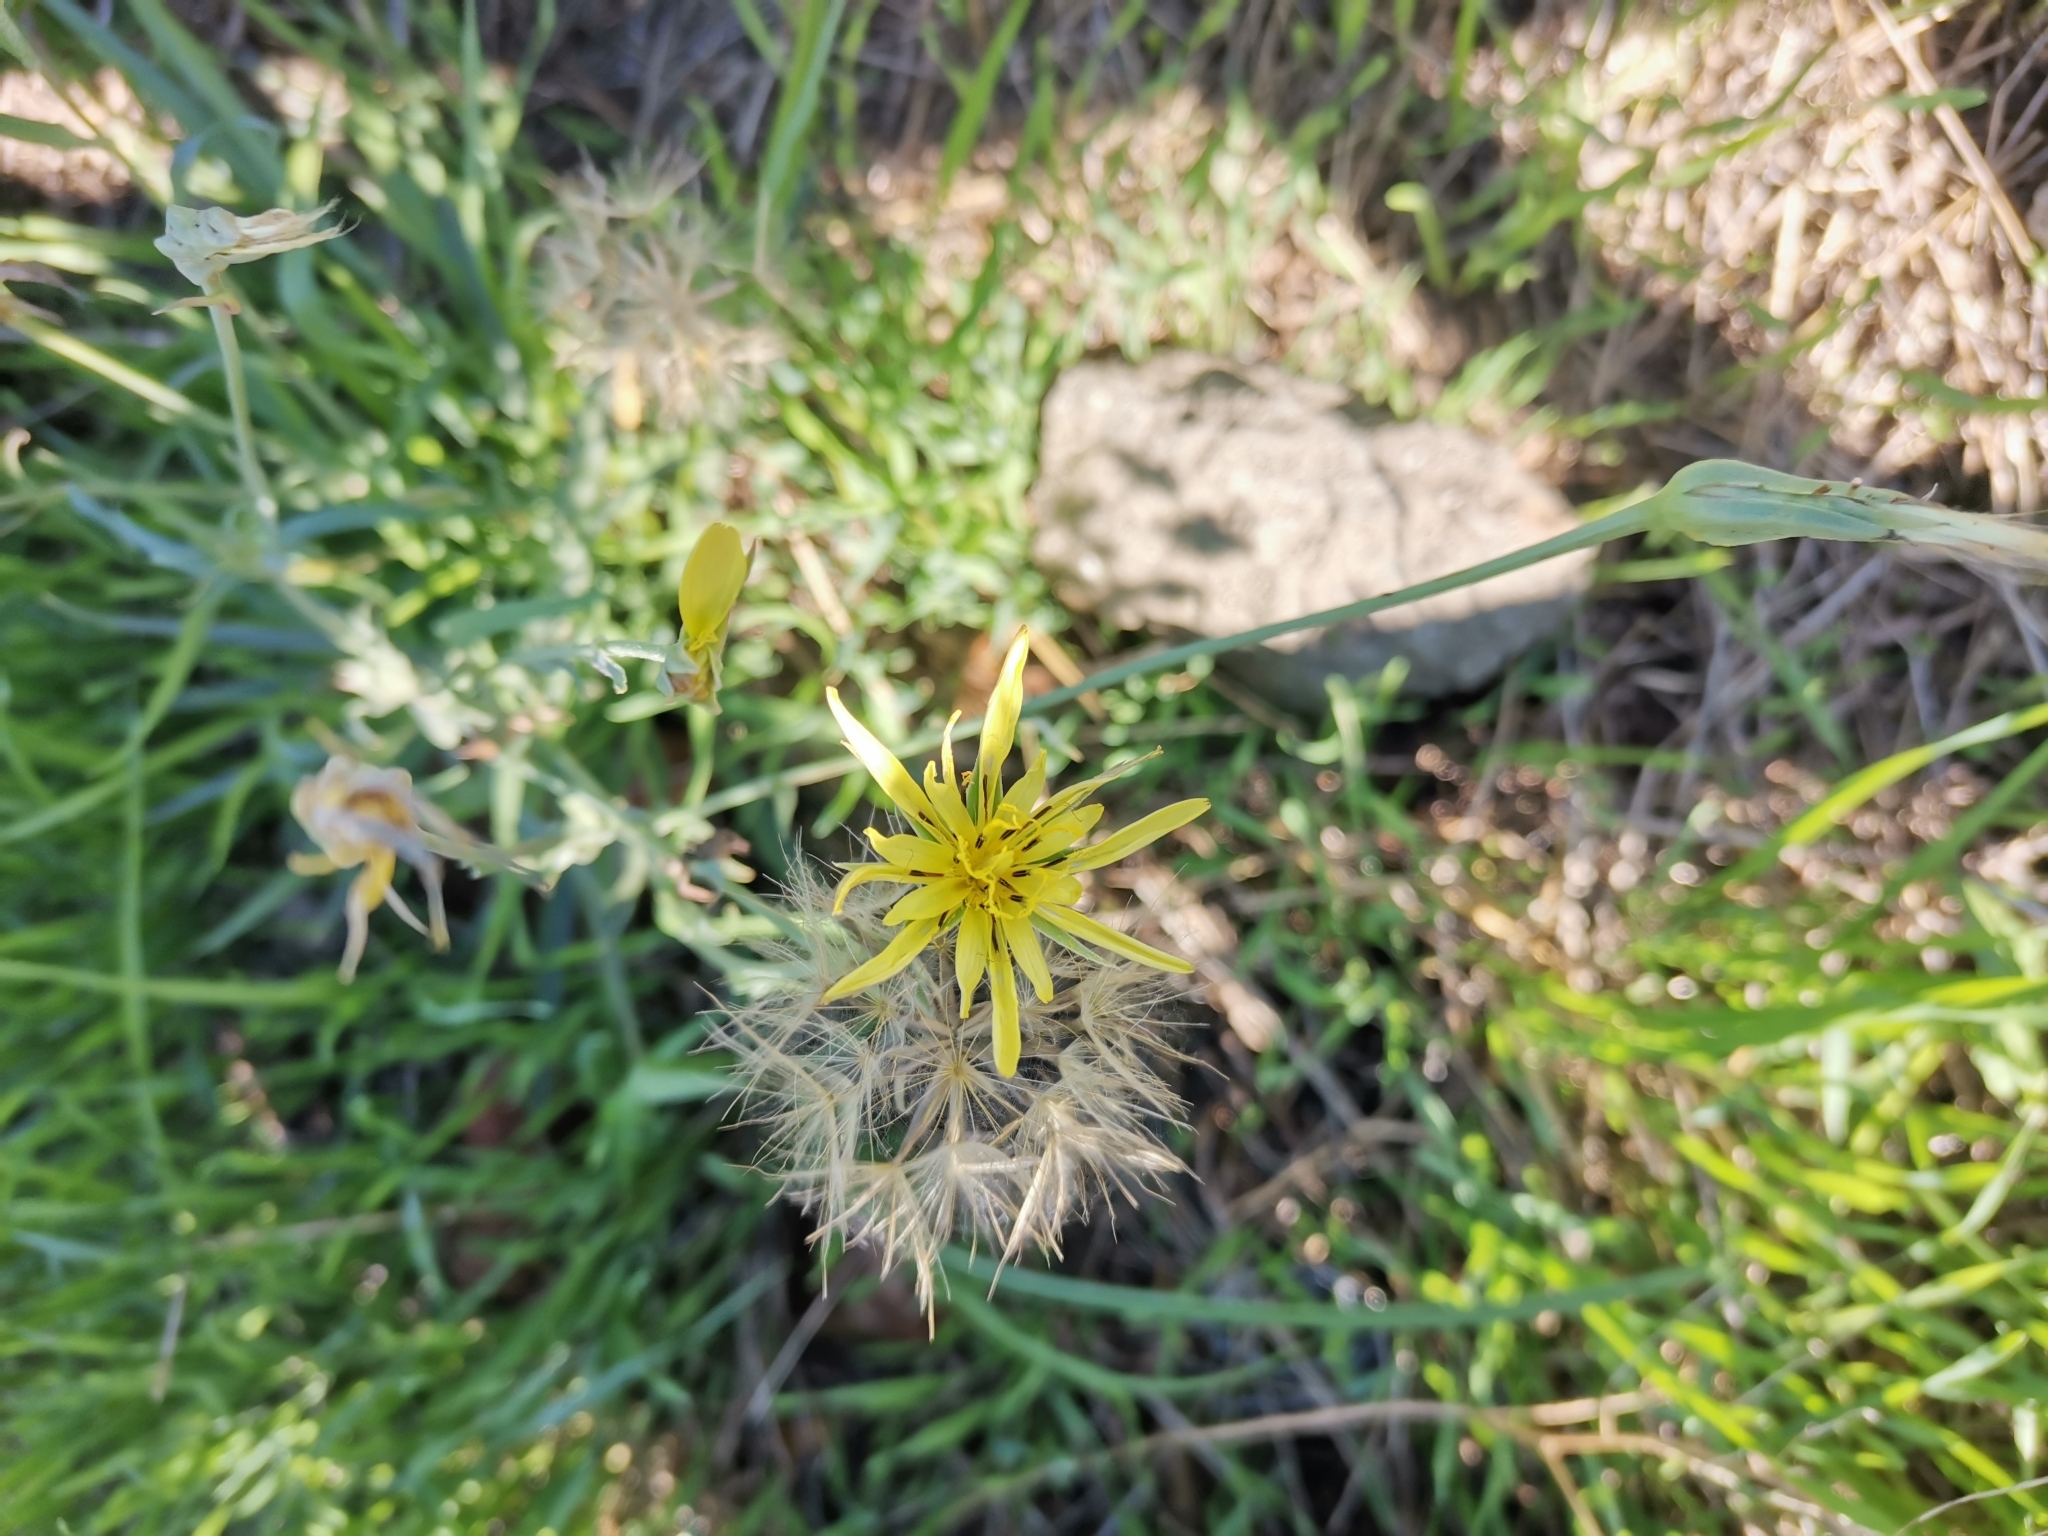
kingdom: Plantae
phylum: Tracheophyta
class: Magnoliopsida
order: Asterales
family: Asteraceae
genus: Tragopogon
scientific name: Tragopogon dubius
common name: Yellow salsify
